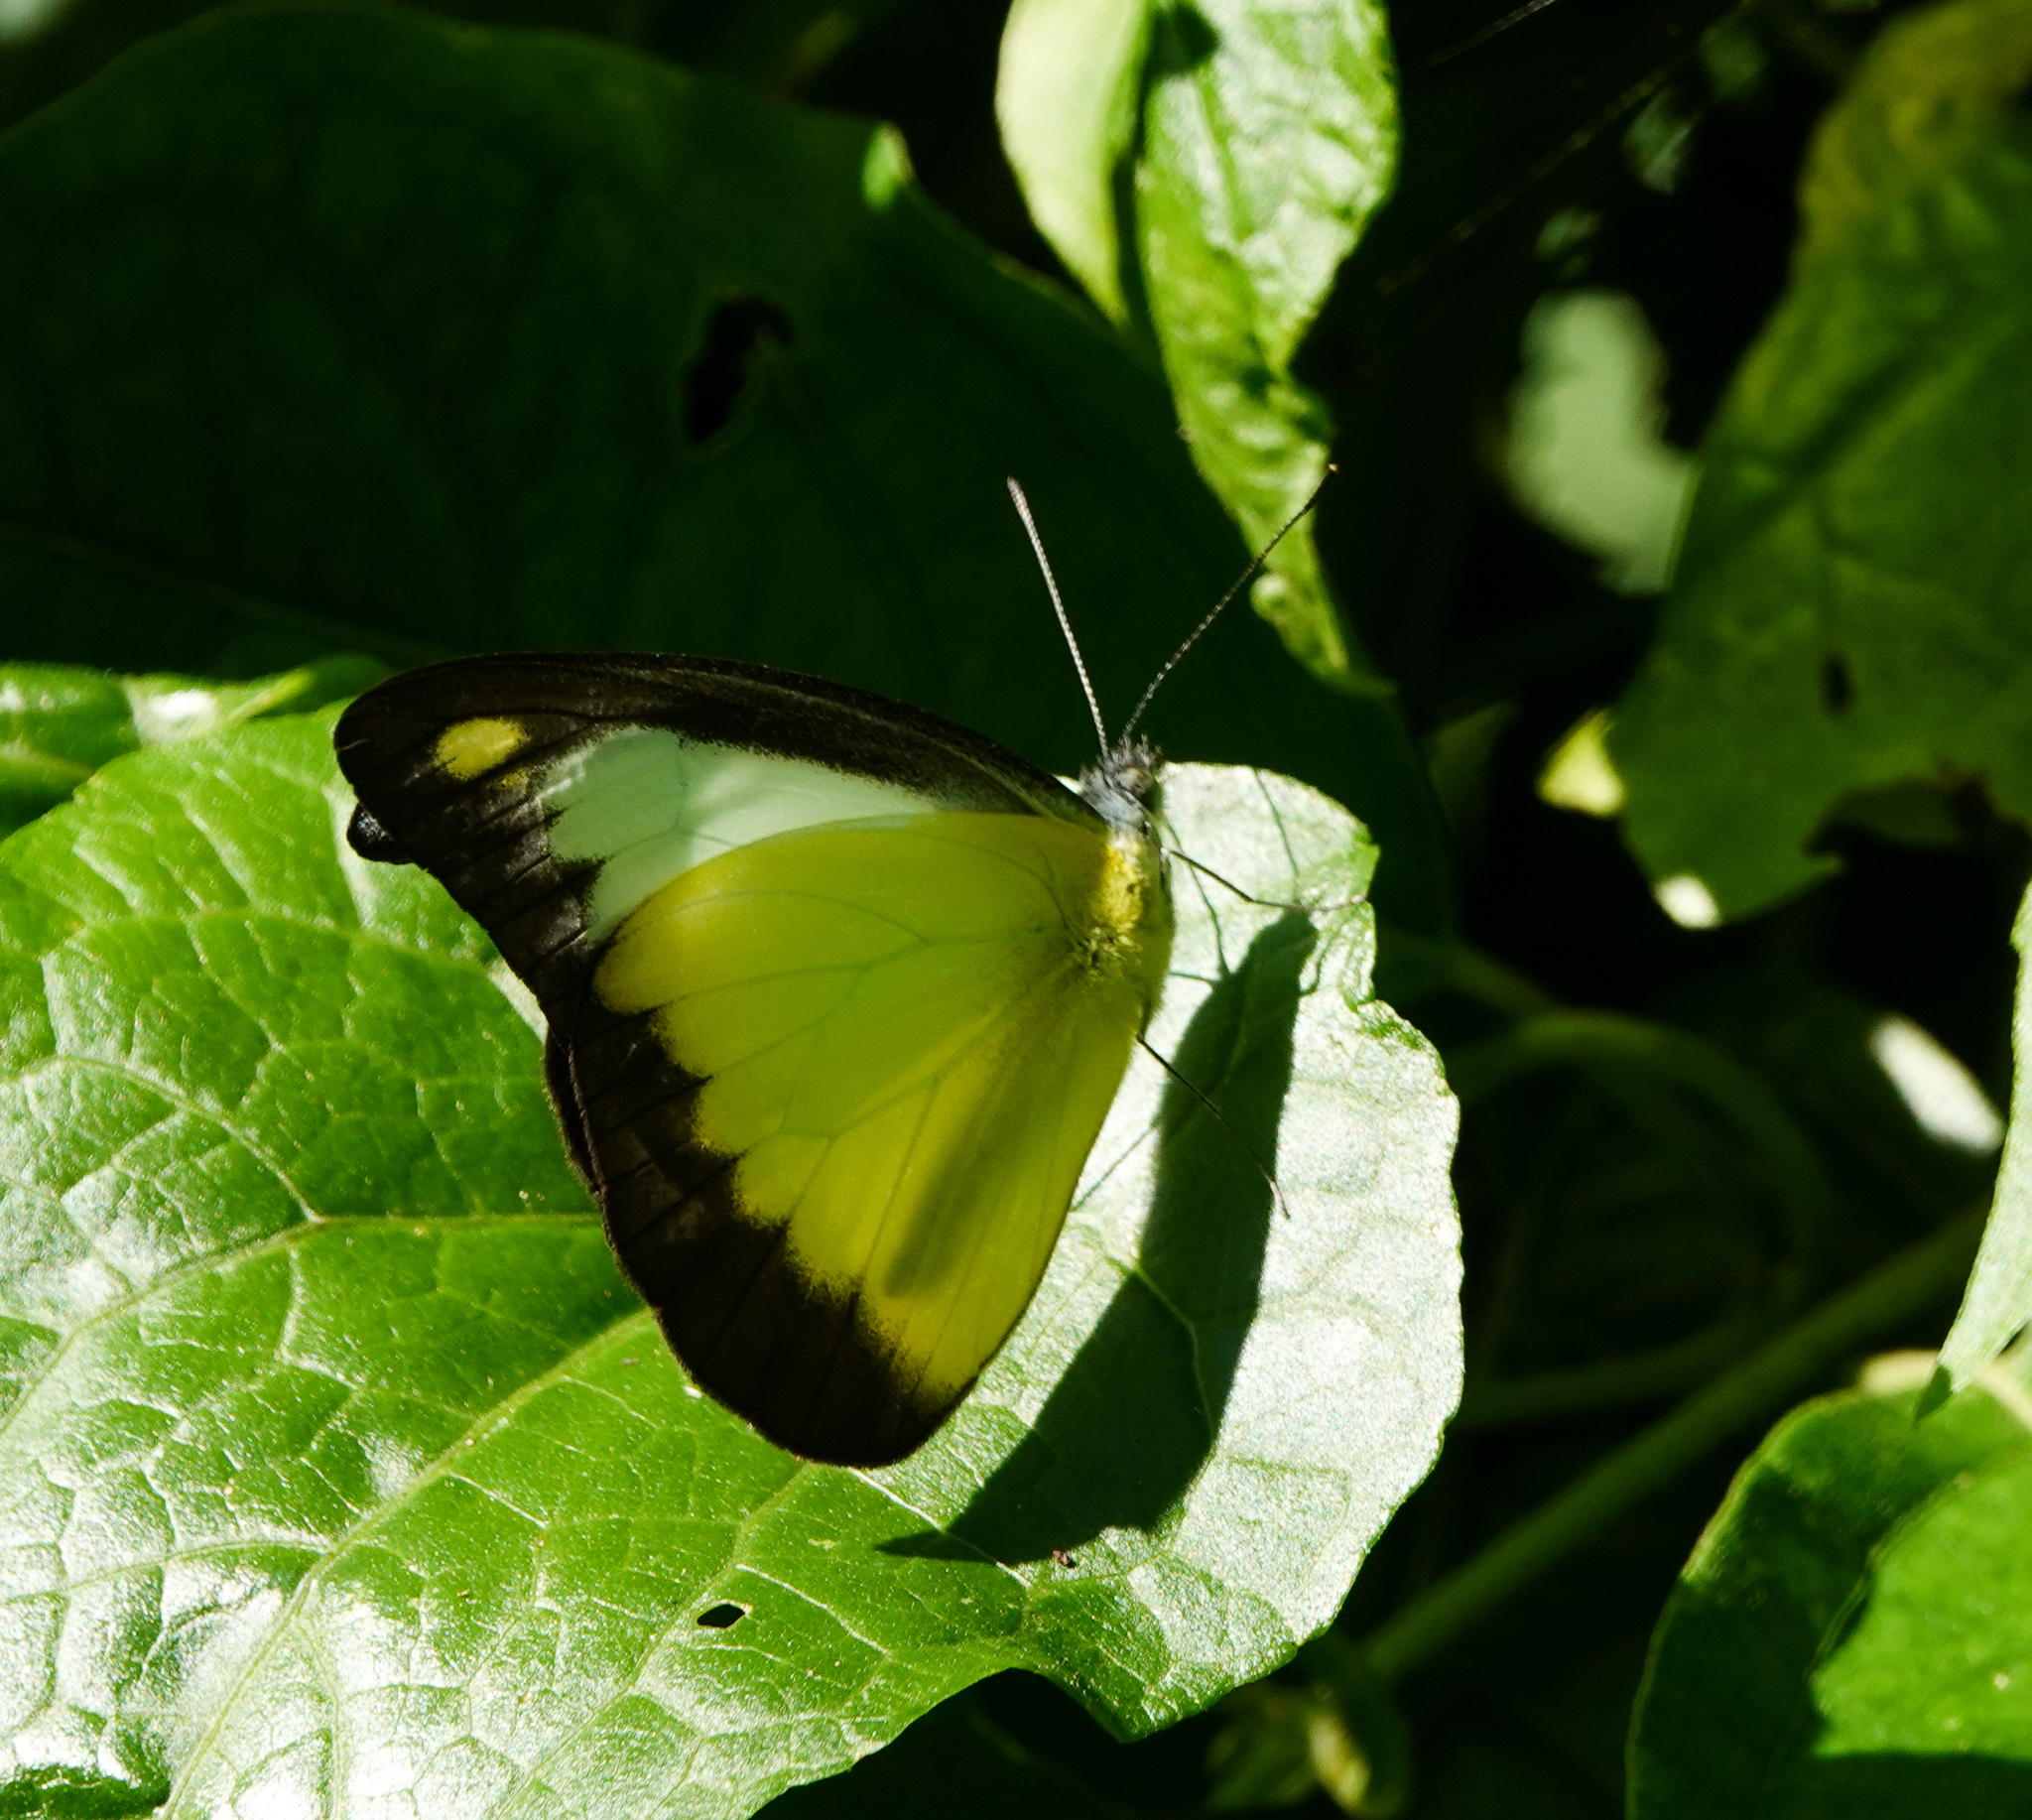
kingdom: Animalia
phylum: Arthropoda
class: Insecta
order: Lepidoptera
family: Pieridae
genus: Appias
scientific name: Appias lyncida
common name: Chocolate albatross
